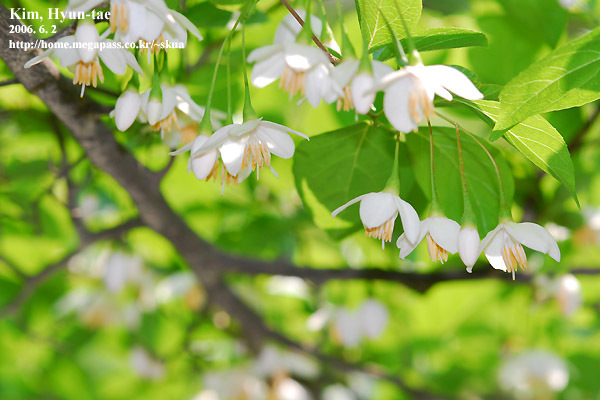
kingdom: Plantae
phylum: Tracheophyta
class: Magnoliopsida
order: Ericales
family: Styracaceae
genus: Styrax
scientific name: Styrax japonicus
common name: Japanese snowbell
